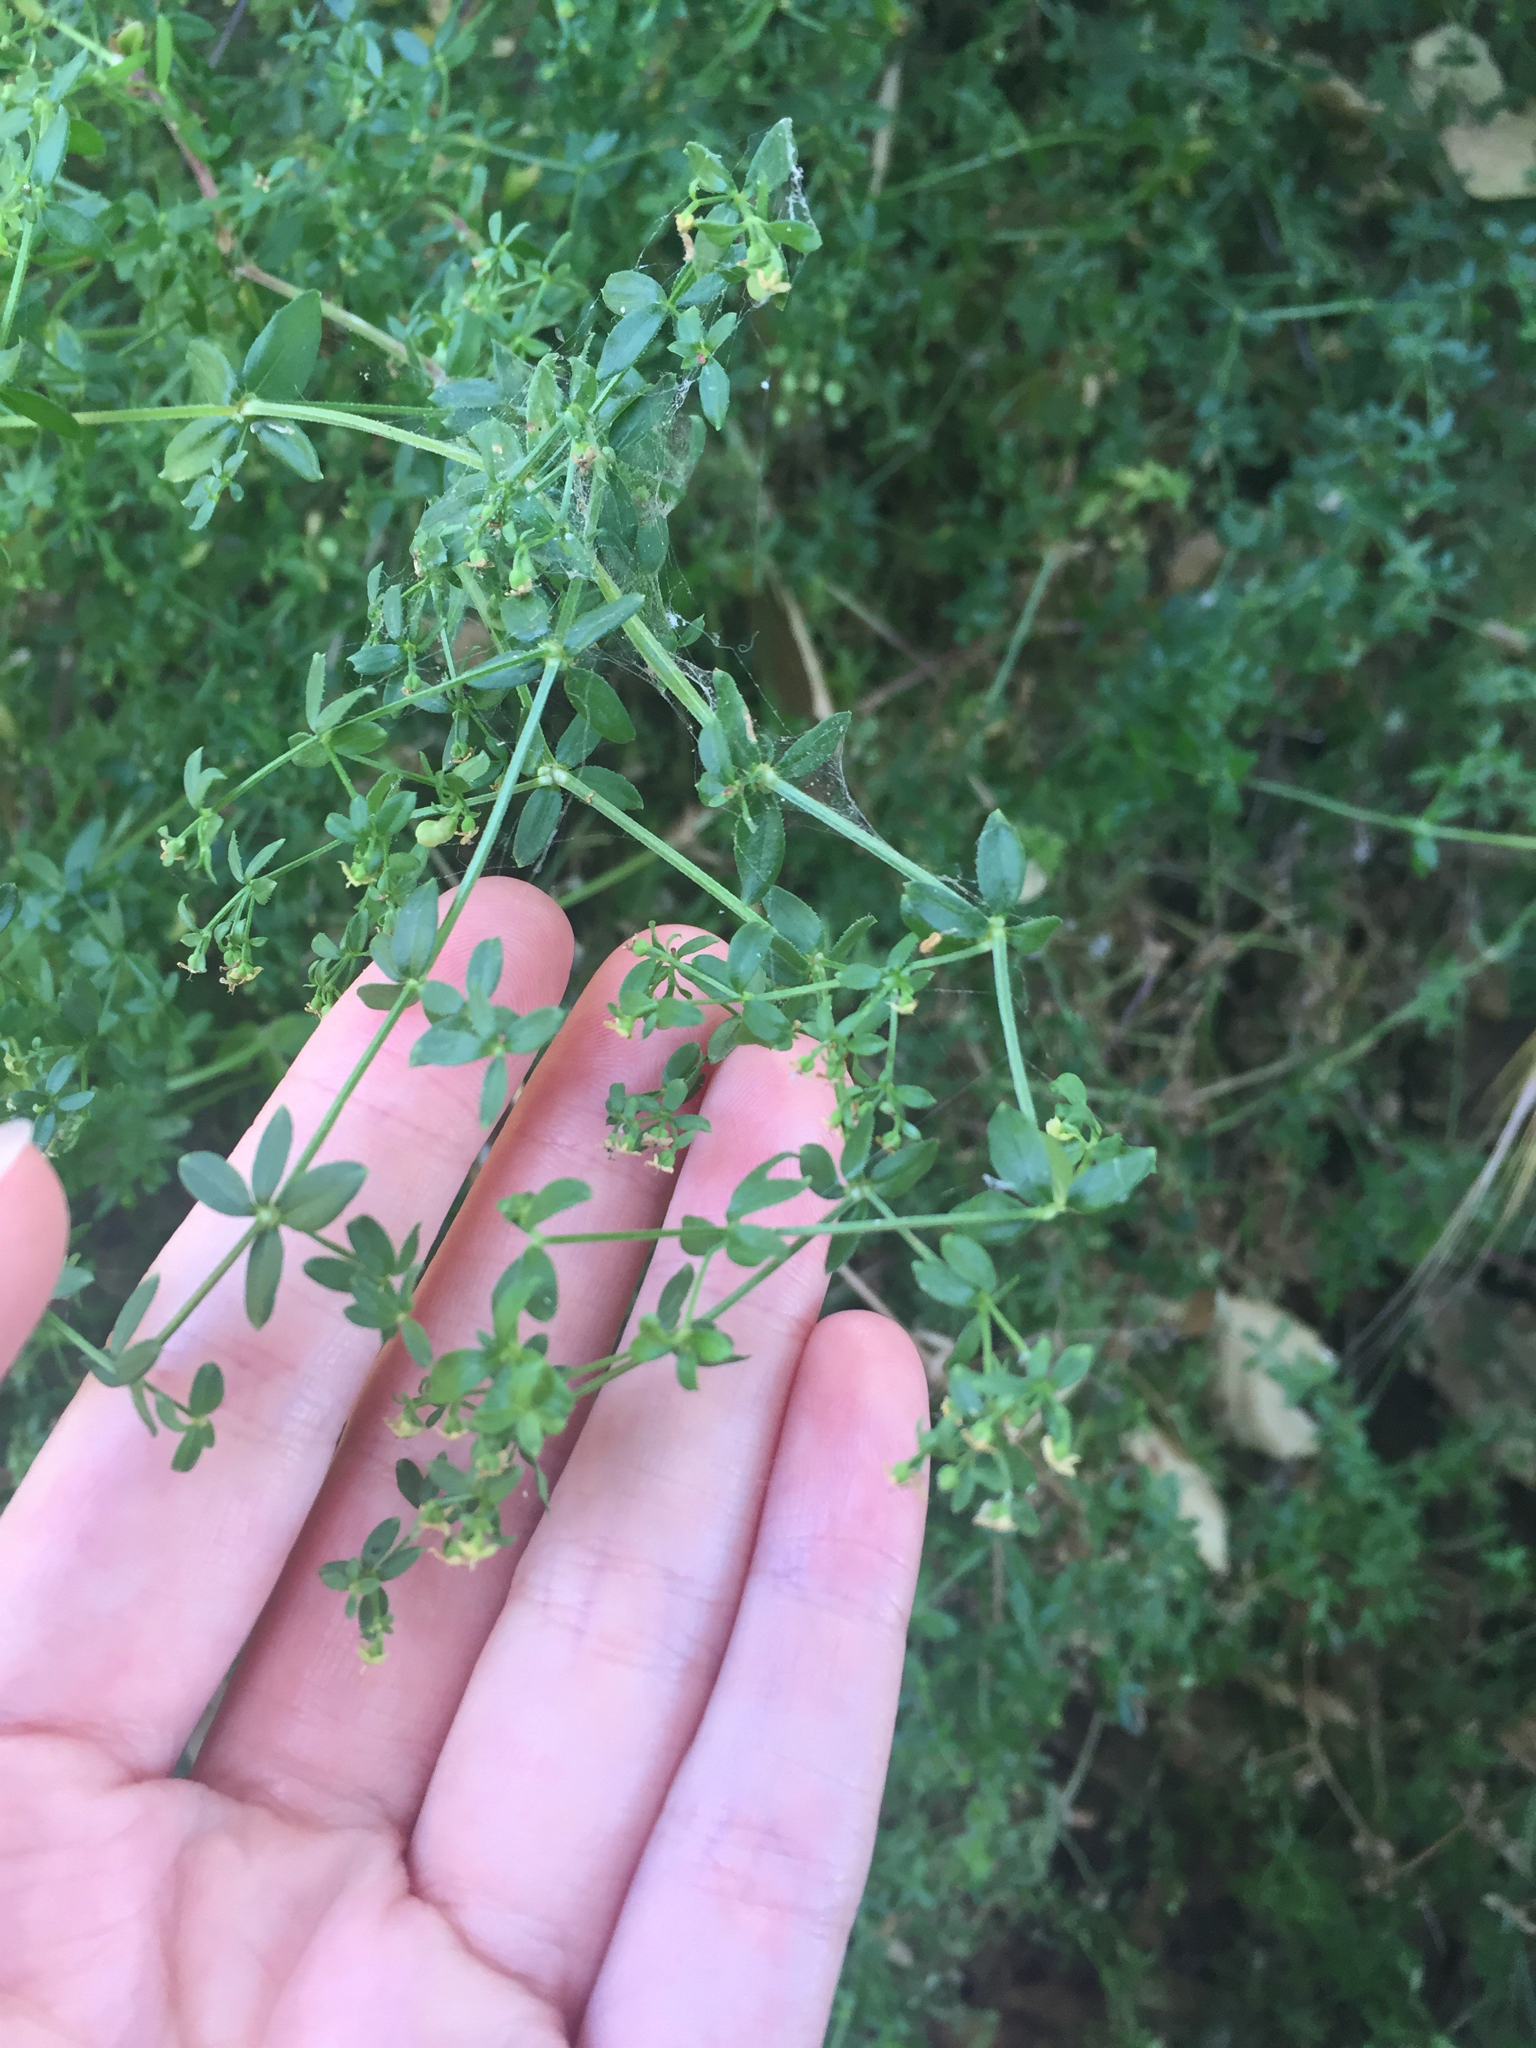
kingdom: Plantae
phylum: Tracheophyta
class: Magnoliopsida
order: Gentianales
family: Rubiaceae
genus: Galium
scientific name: Galium porrigens
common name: Climbing bedstraw
